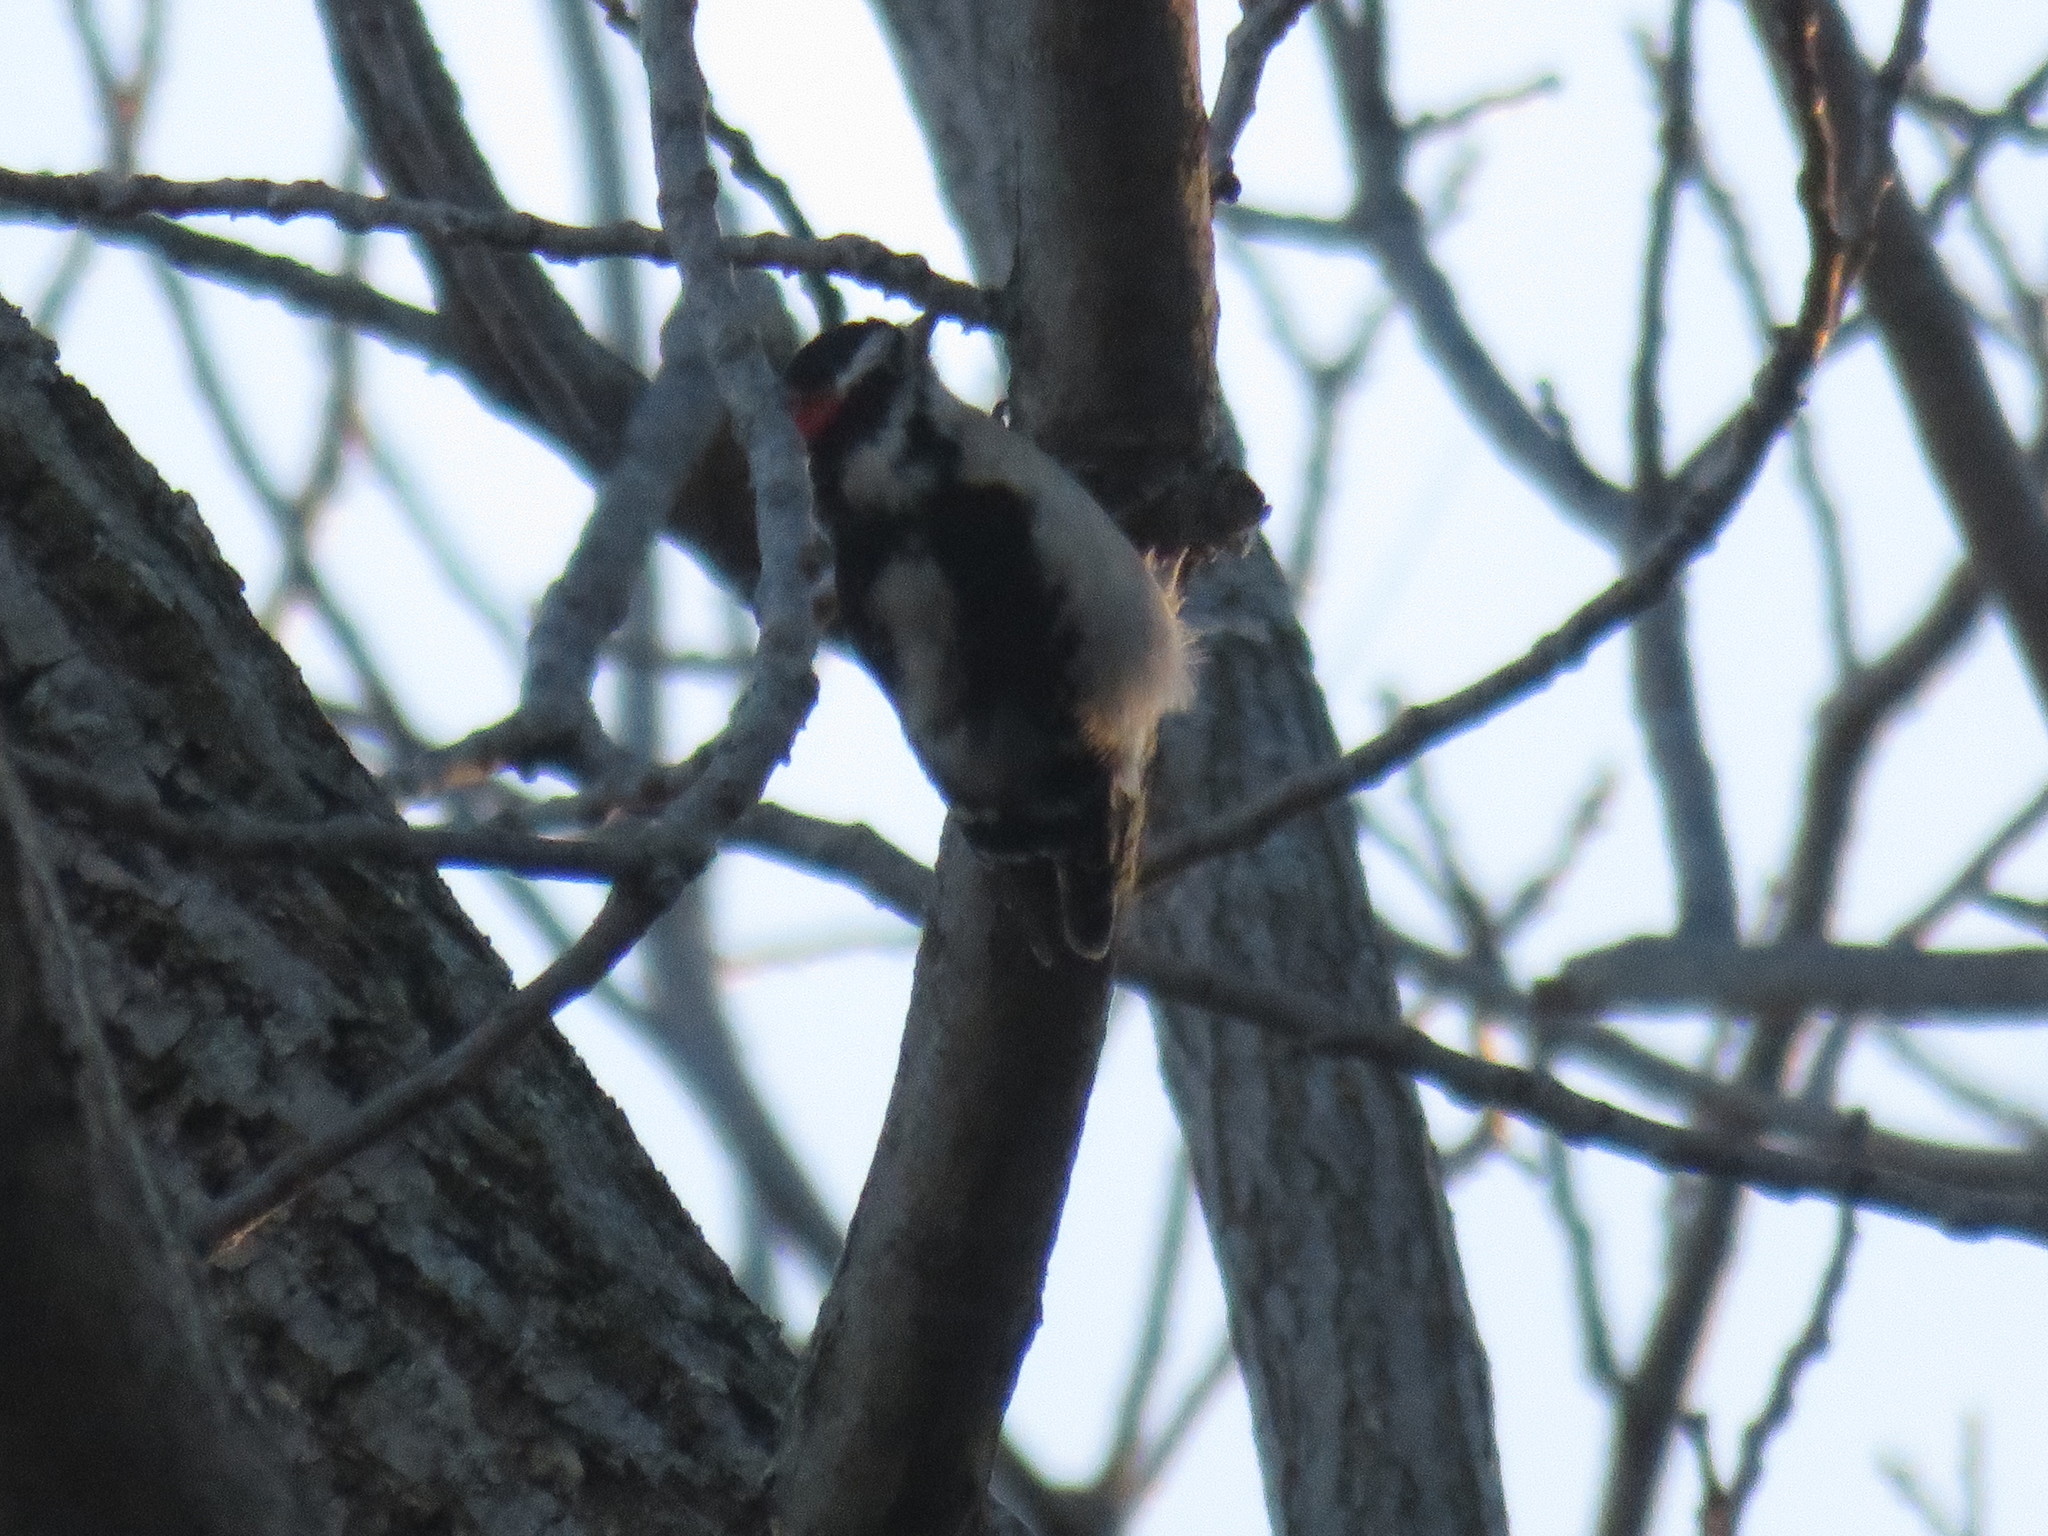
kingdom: Animalia
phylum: Chordata
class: Aves
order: Piciformes
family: Picidae
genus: Dryobates
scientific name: Dryobates pubescens
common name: Downy woodpecker
